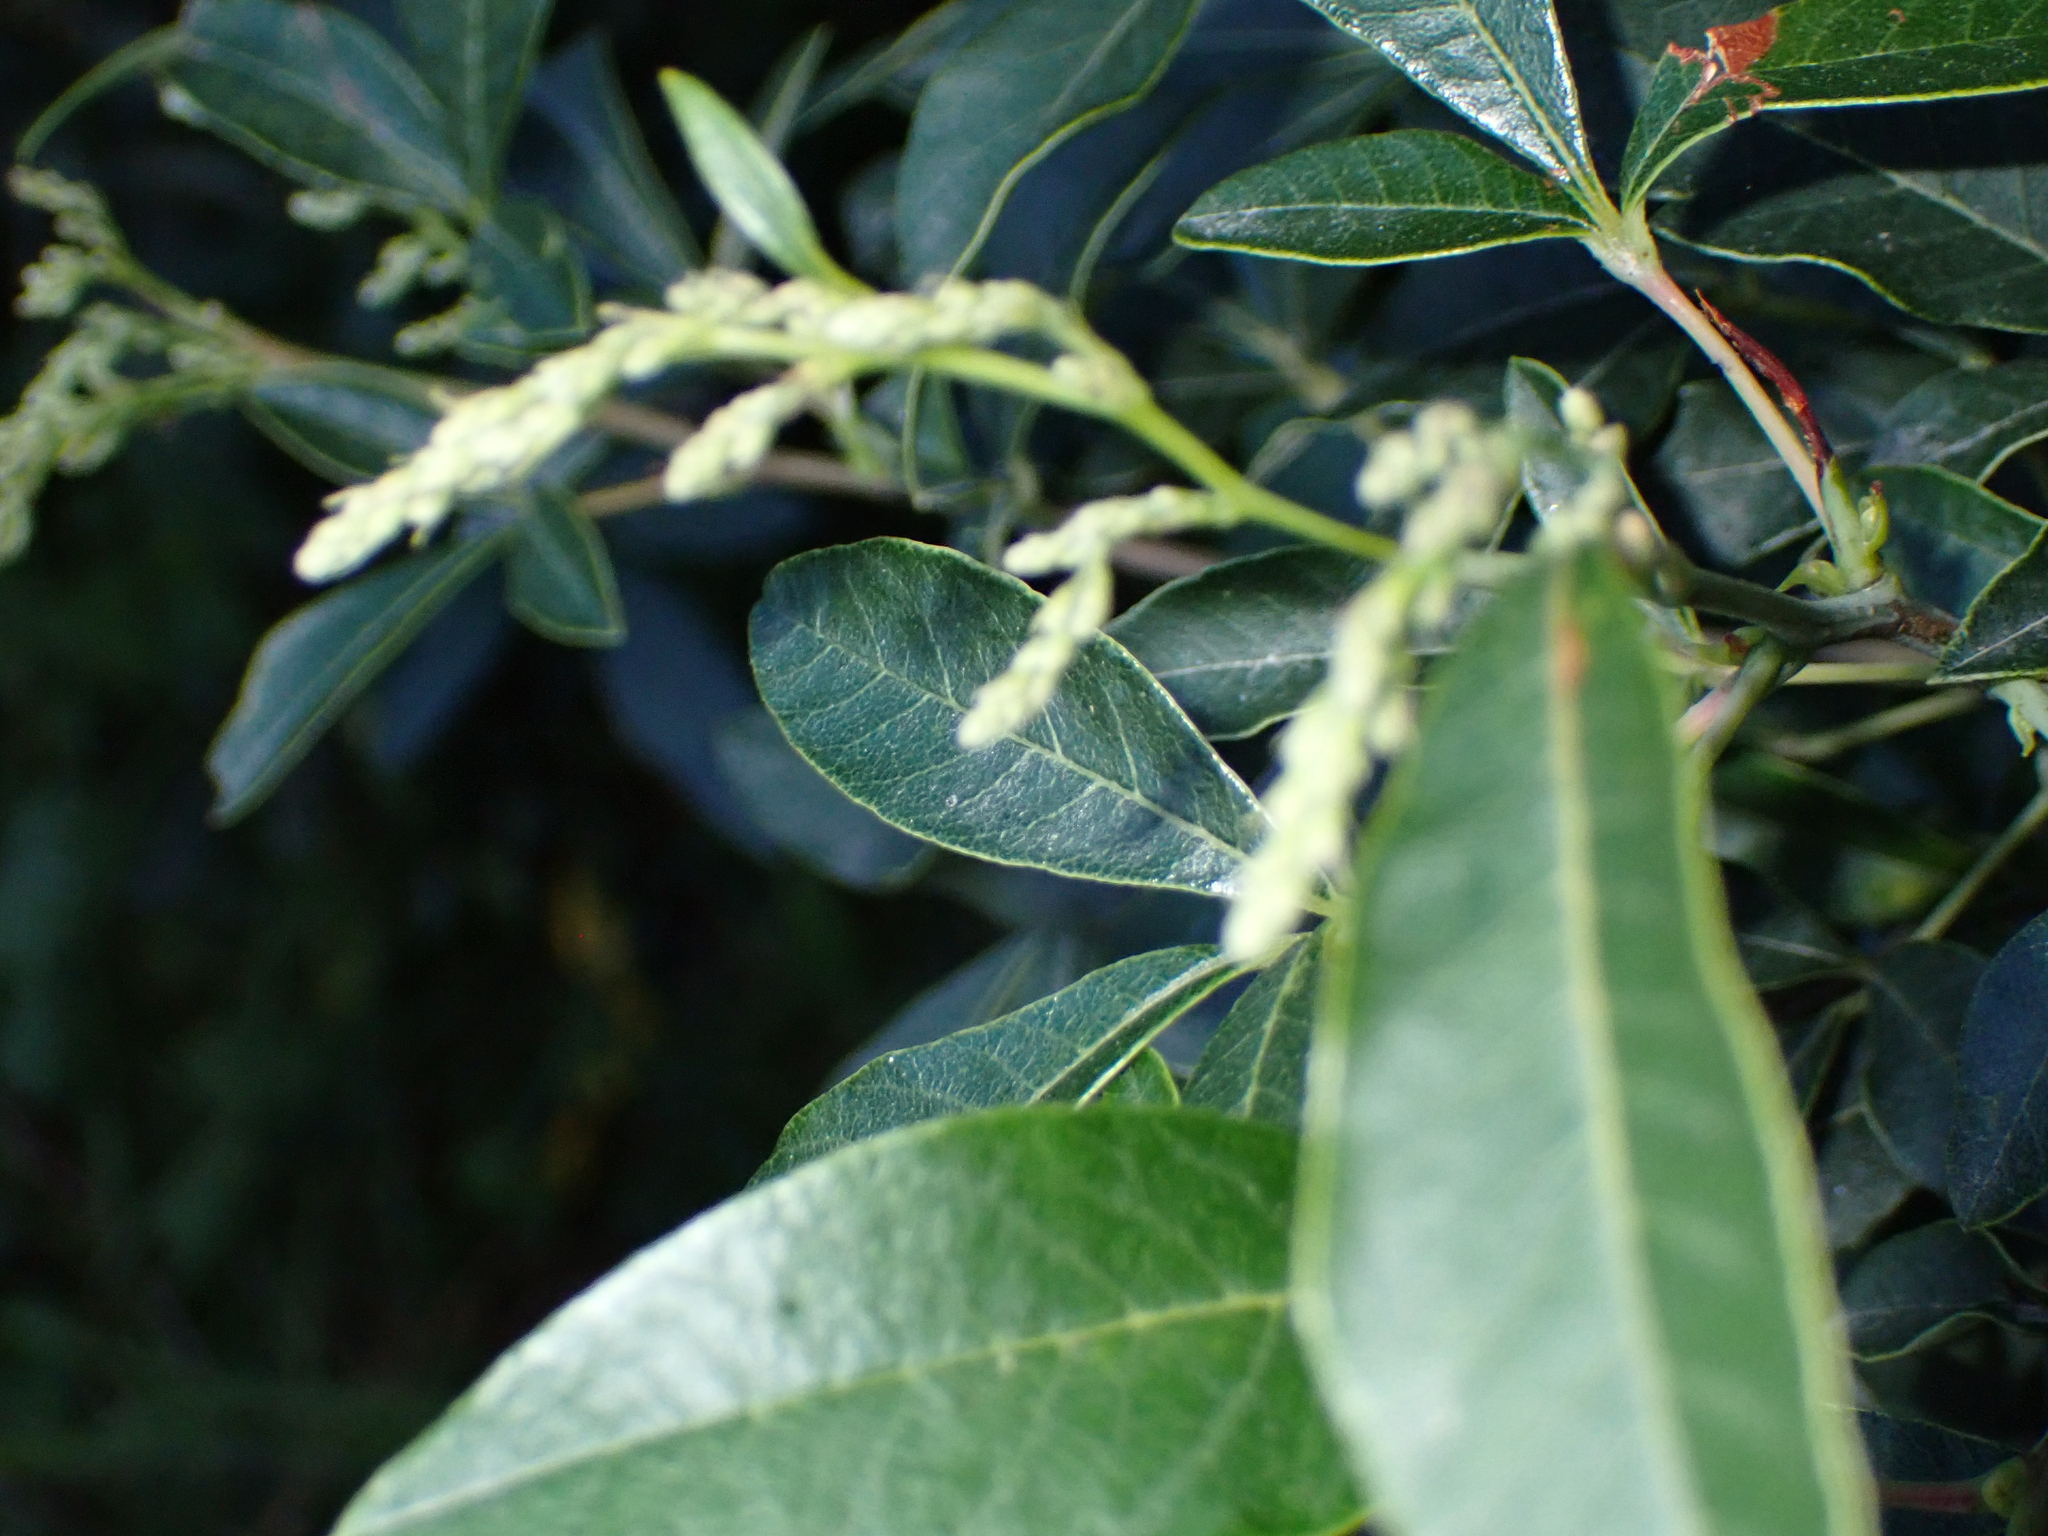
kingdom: Plantae
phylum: Tracheophyta
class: Magnoliopsida
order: Sapindales
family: Anacardiaceae
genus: Searsia
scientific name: Searsia tomentosa
